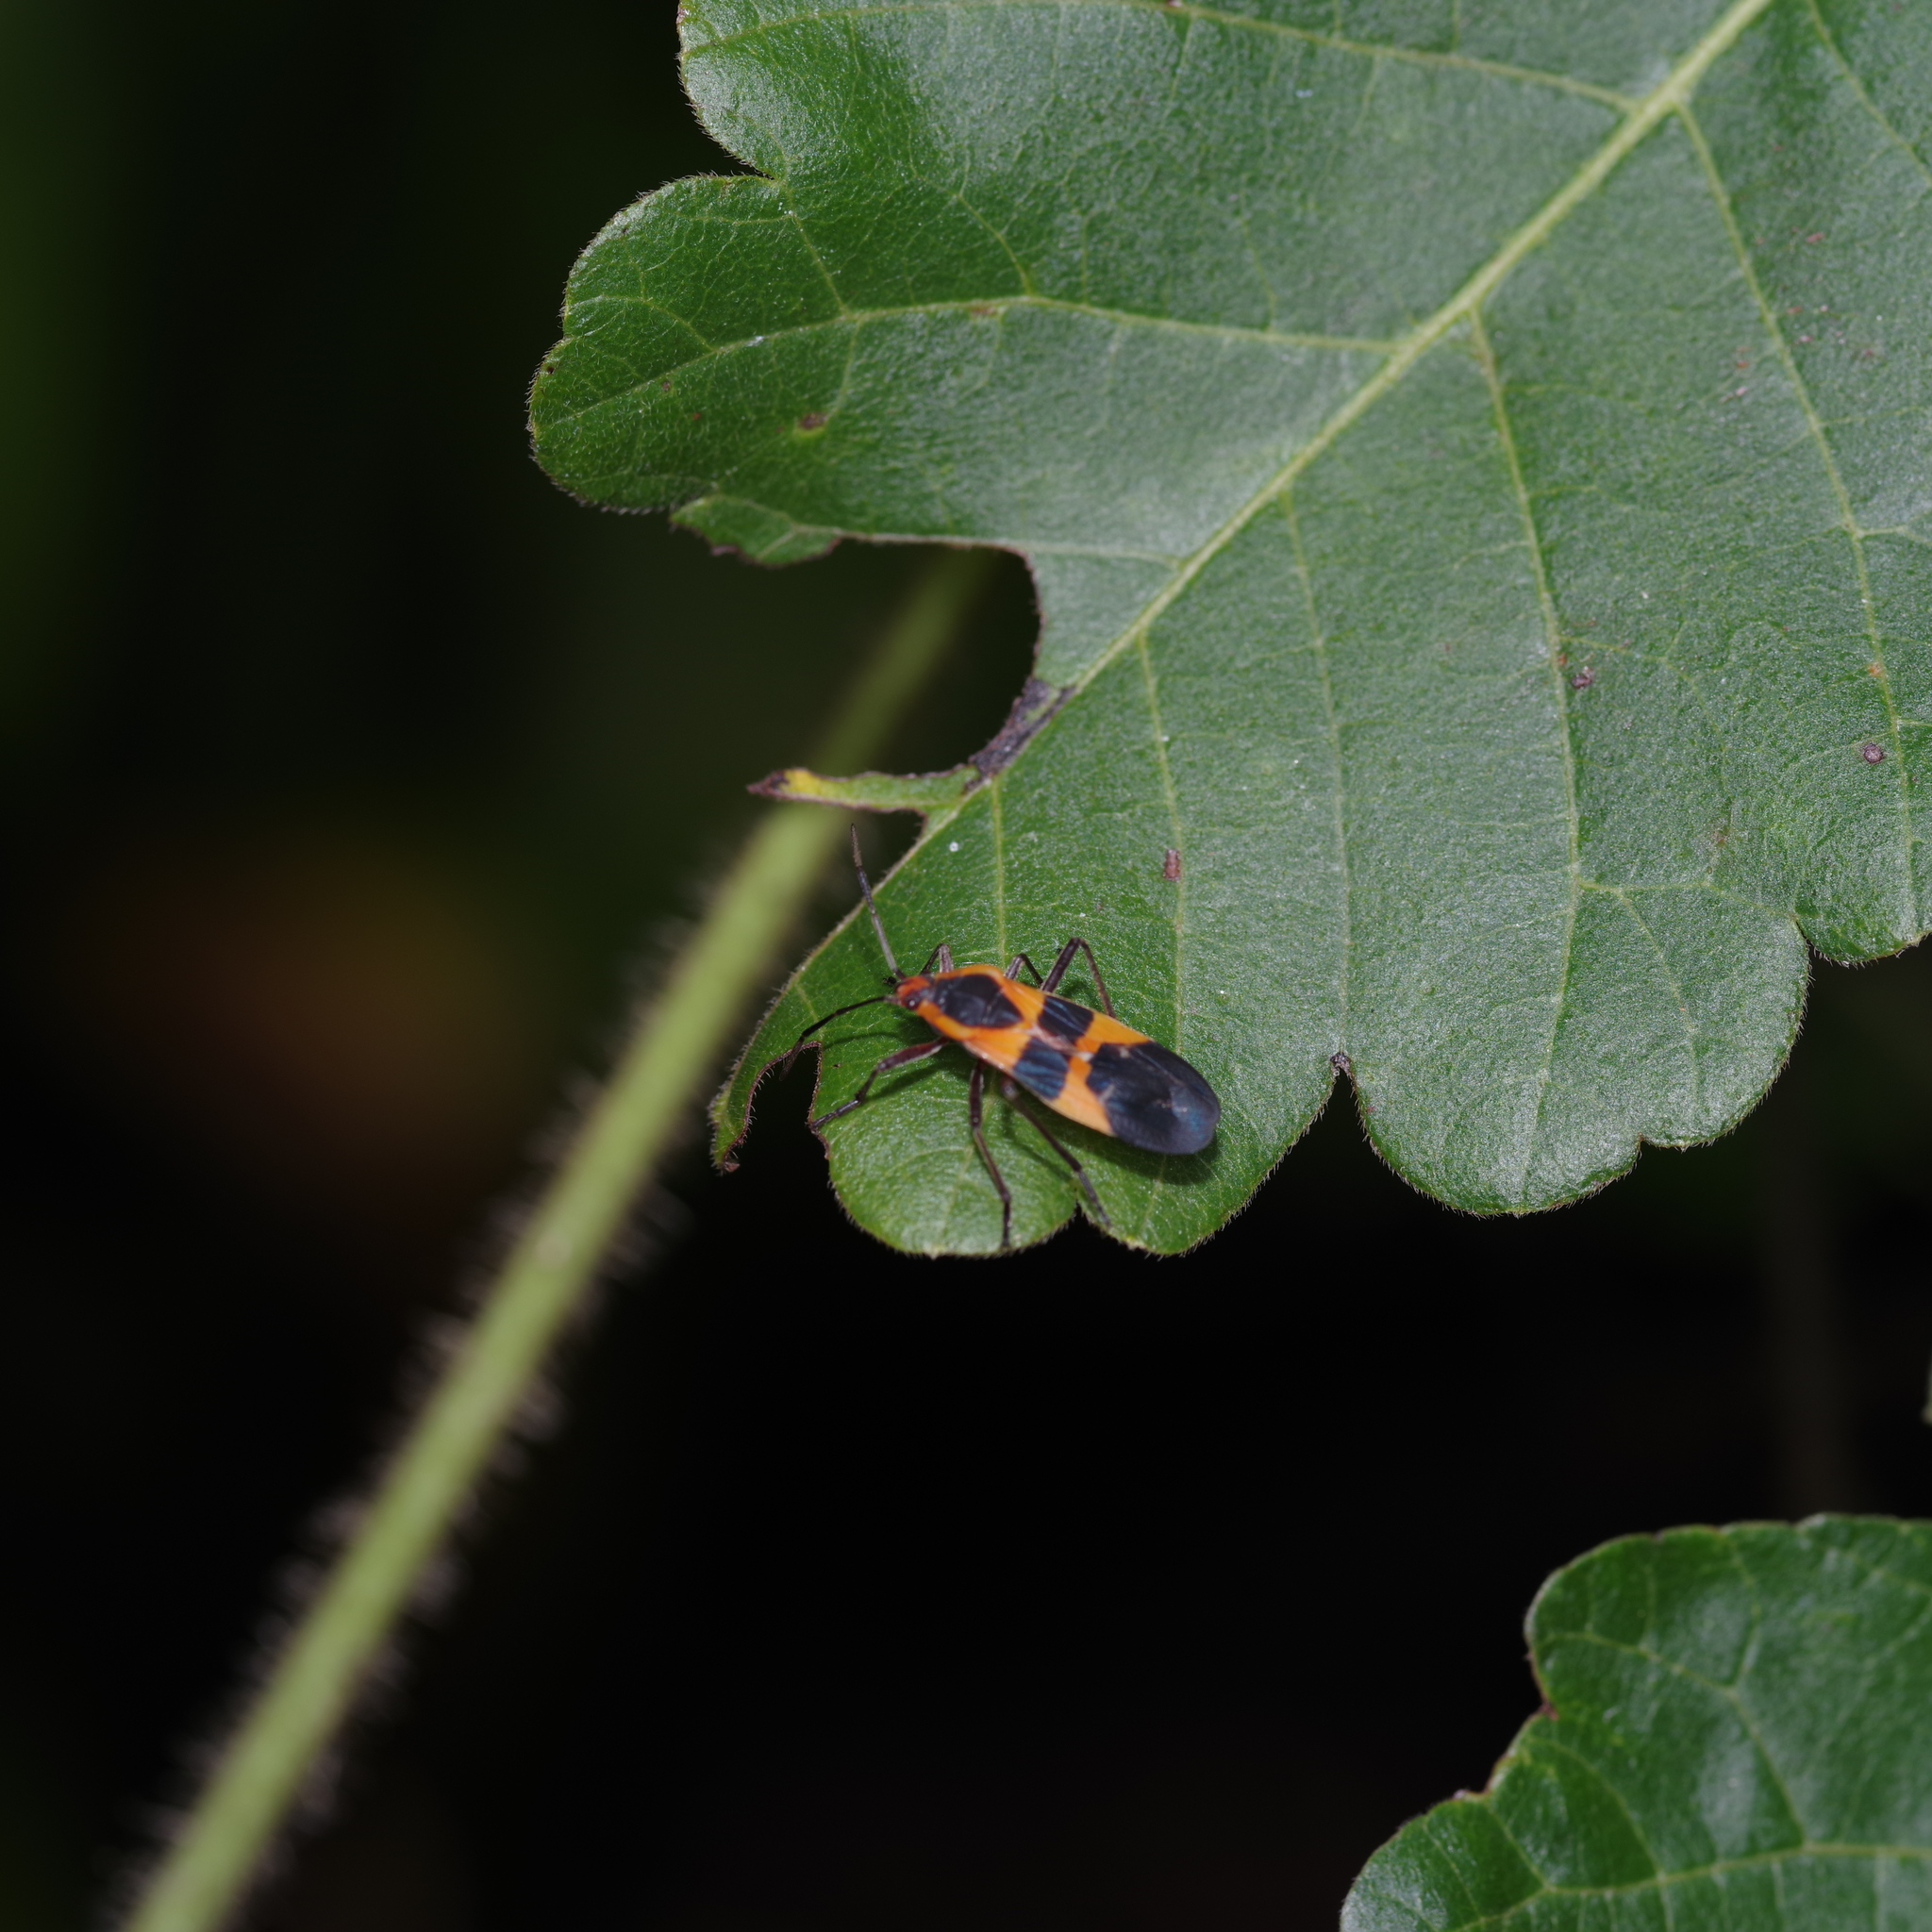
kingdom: Animalia
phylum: Arthropoda
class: Insecta
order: Hemiptera
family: Lygaeidae
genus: Oncopeltus
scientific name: Oncopeltus fasciatus
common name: Large milkweed bug
